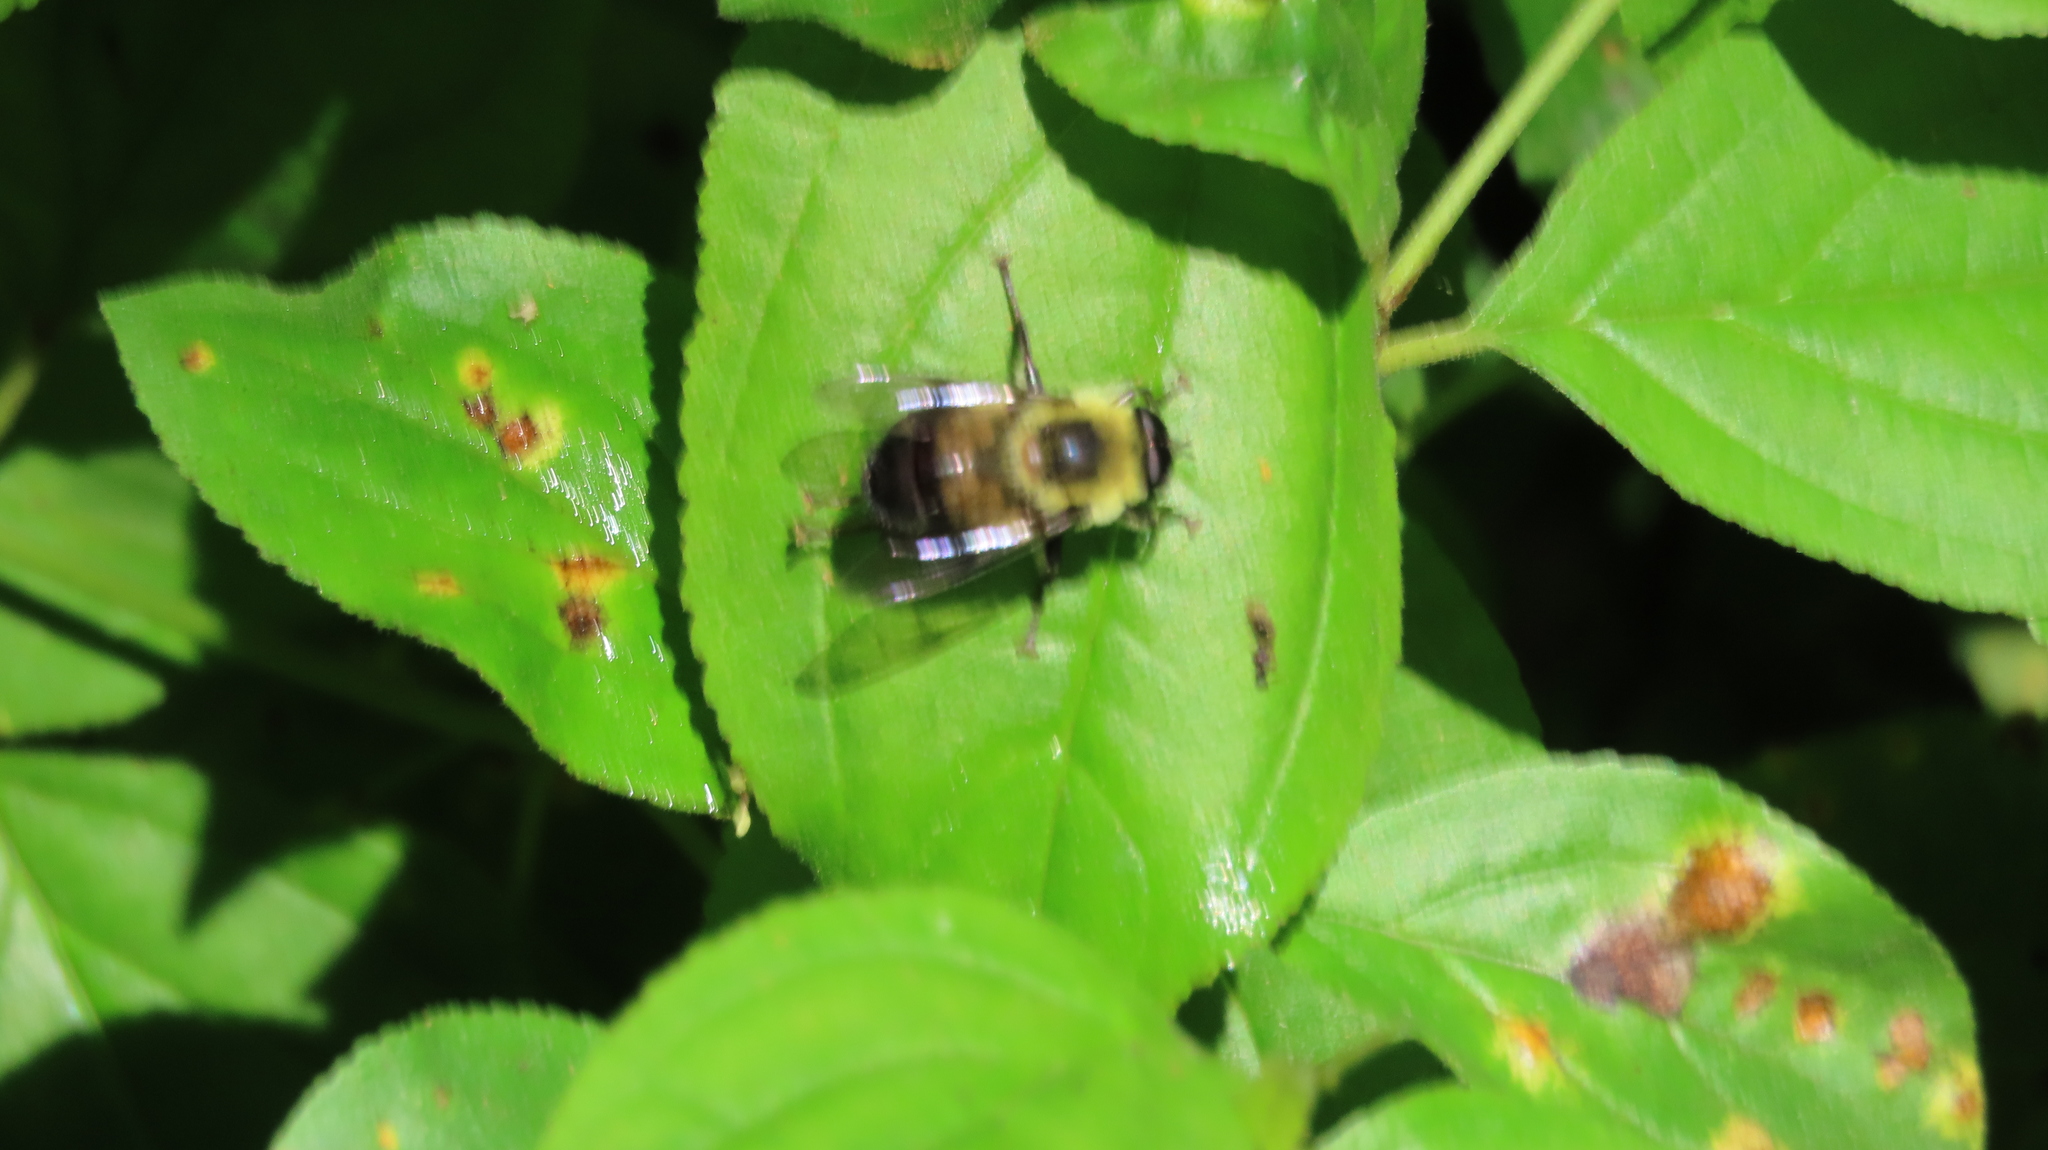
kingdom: Animalia
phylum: Arthropoda
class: Insecta
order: Diptera
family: Syrphidae
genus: Imatisma
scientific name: Imatisma posticata
